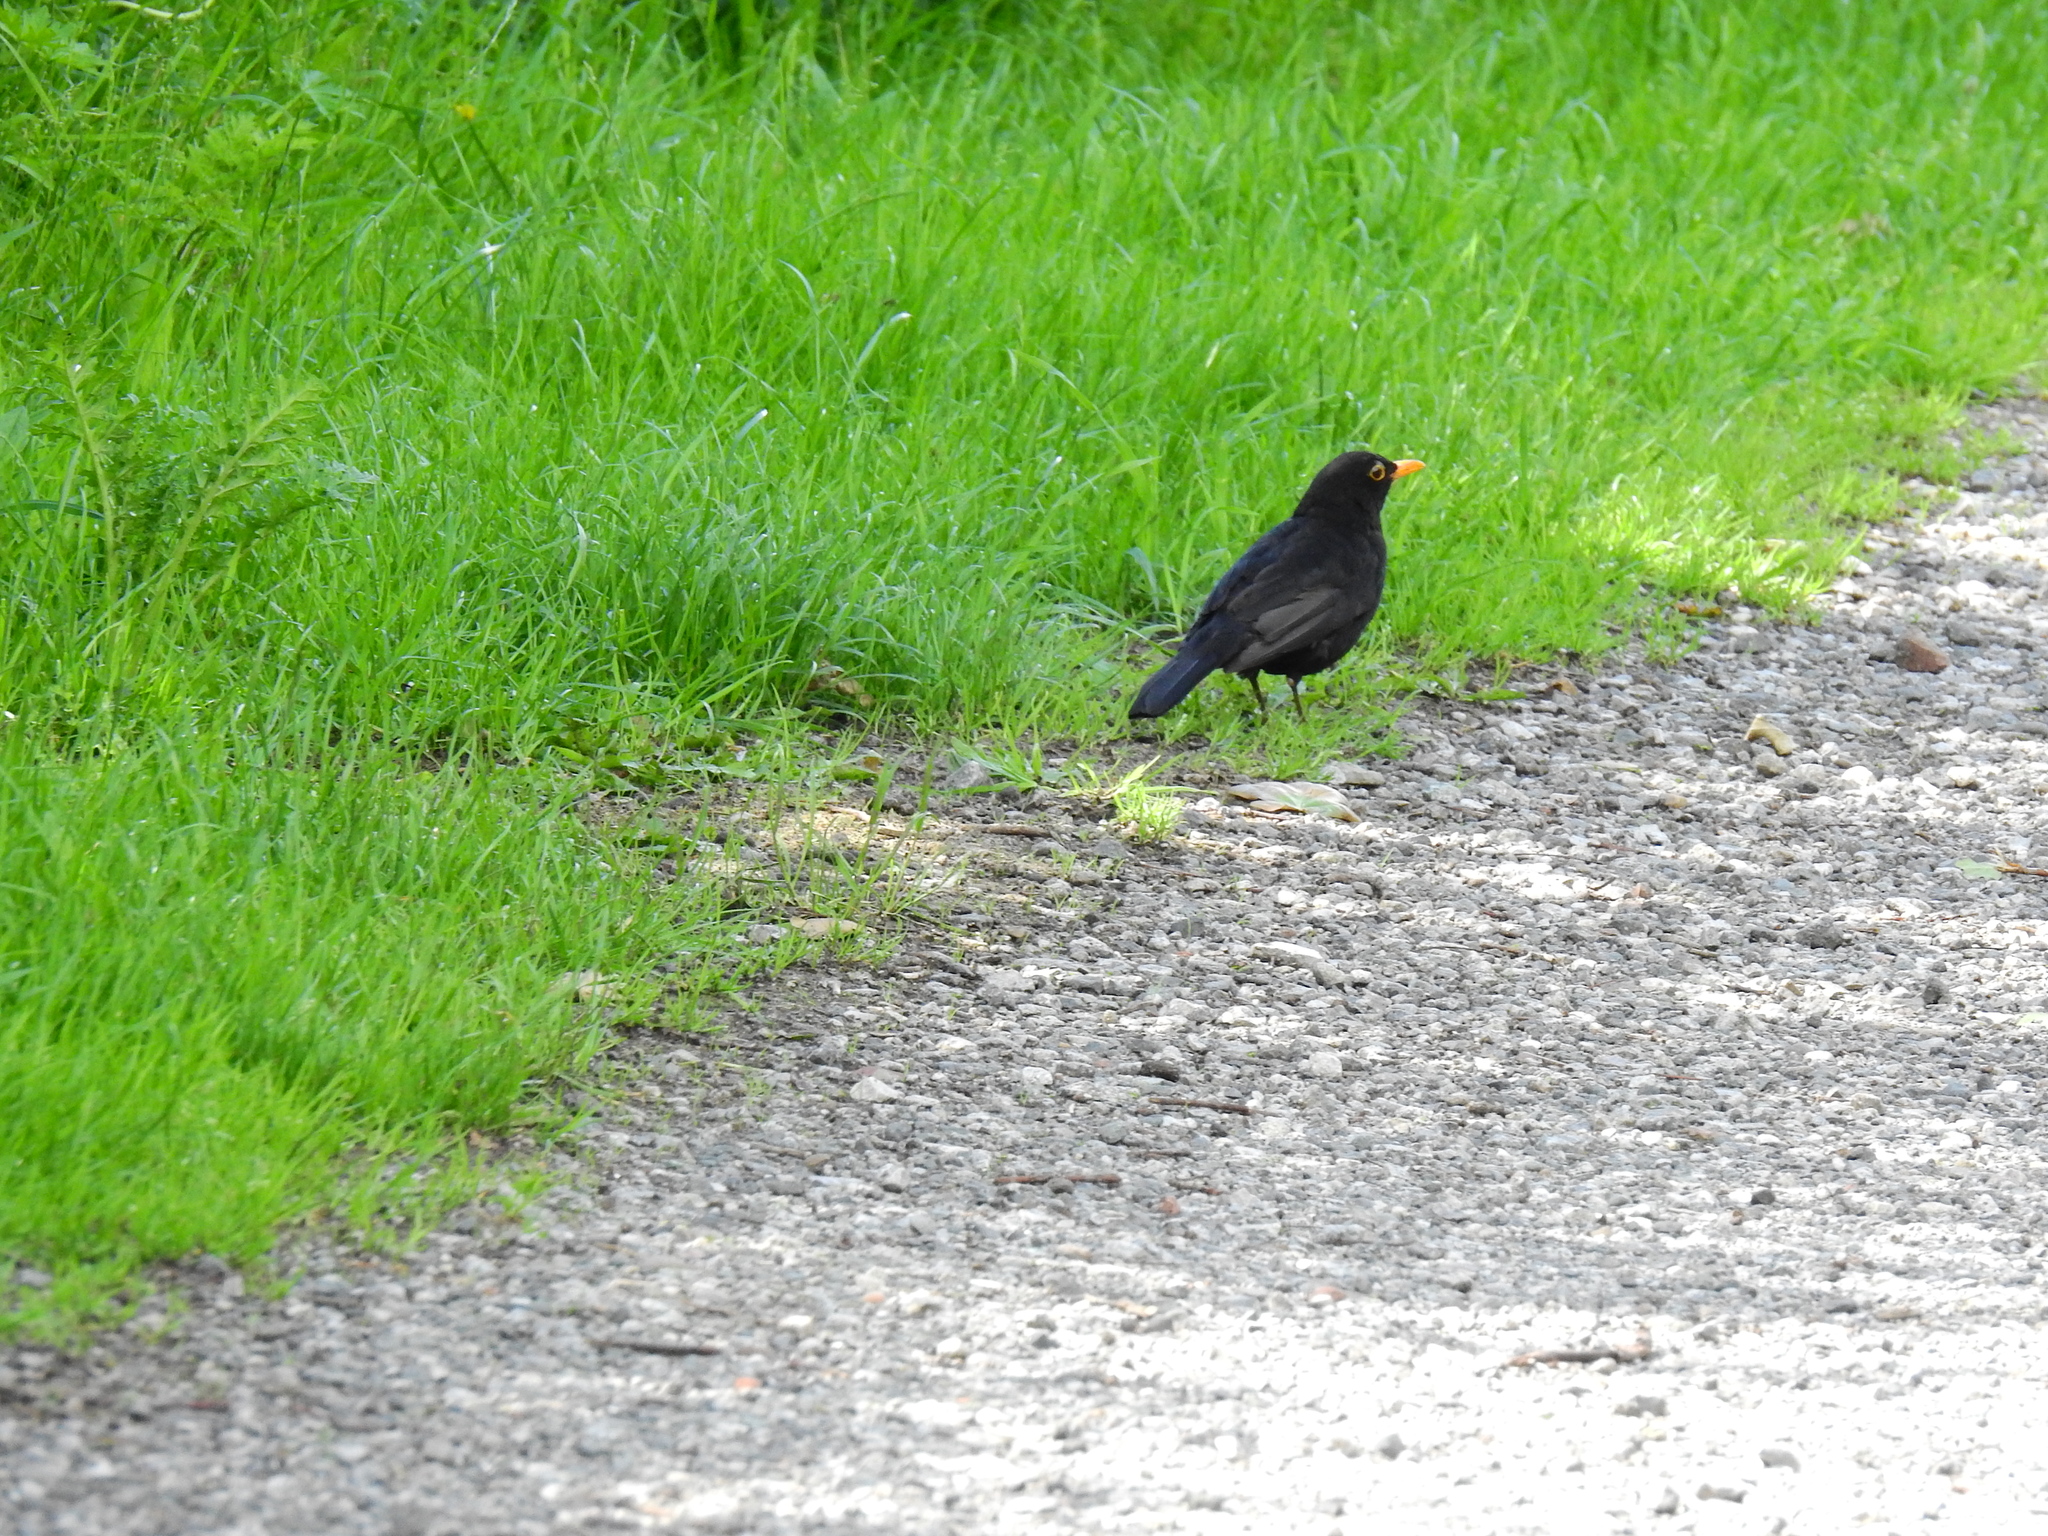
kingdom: Animalia
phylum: Chordata
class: Aves
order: Passeriformes
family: Turdidae
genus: Turdus
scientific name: Turdus merula
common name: Common blackbird
